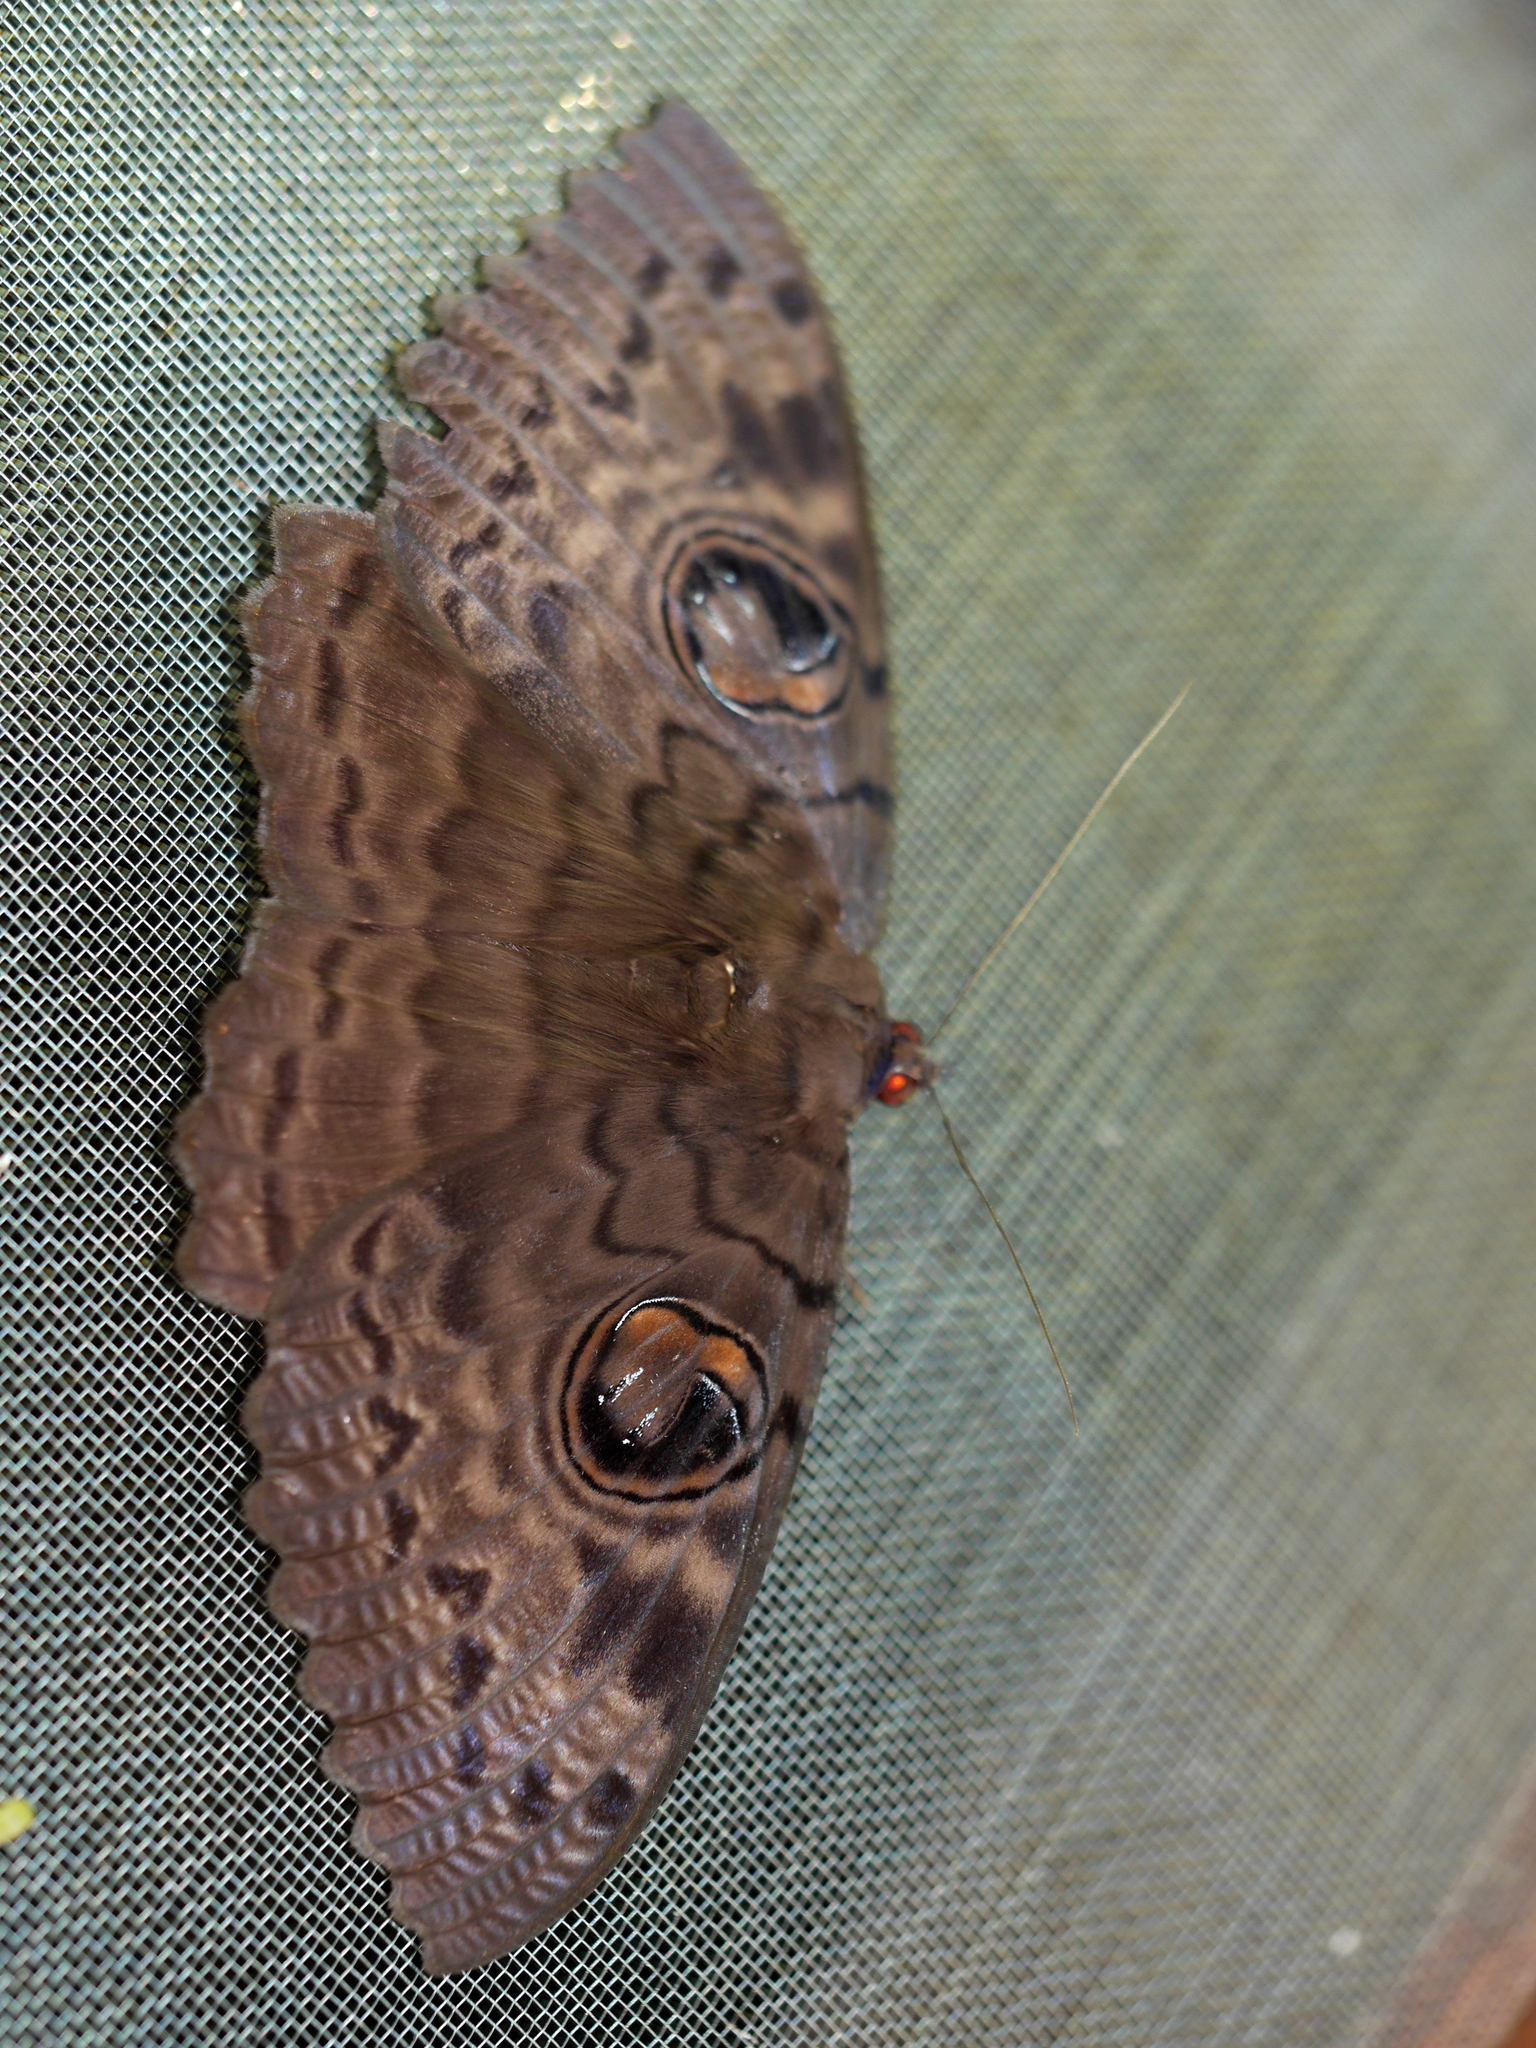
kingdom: Animalia
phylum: Arthropoda
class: Insecta
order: Lepidoptera
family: Erebidae
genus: Erebus
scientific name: Erebus walkeri
